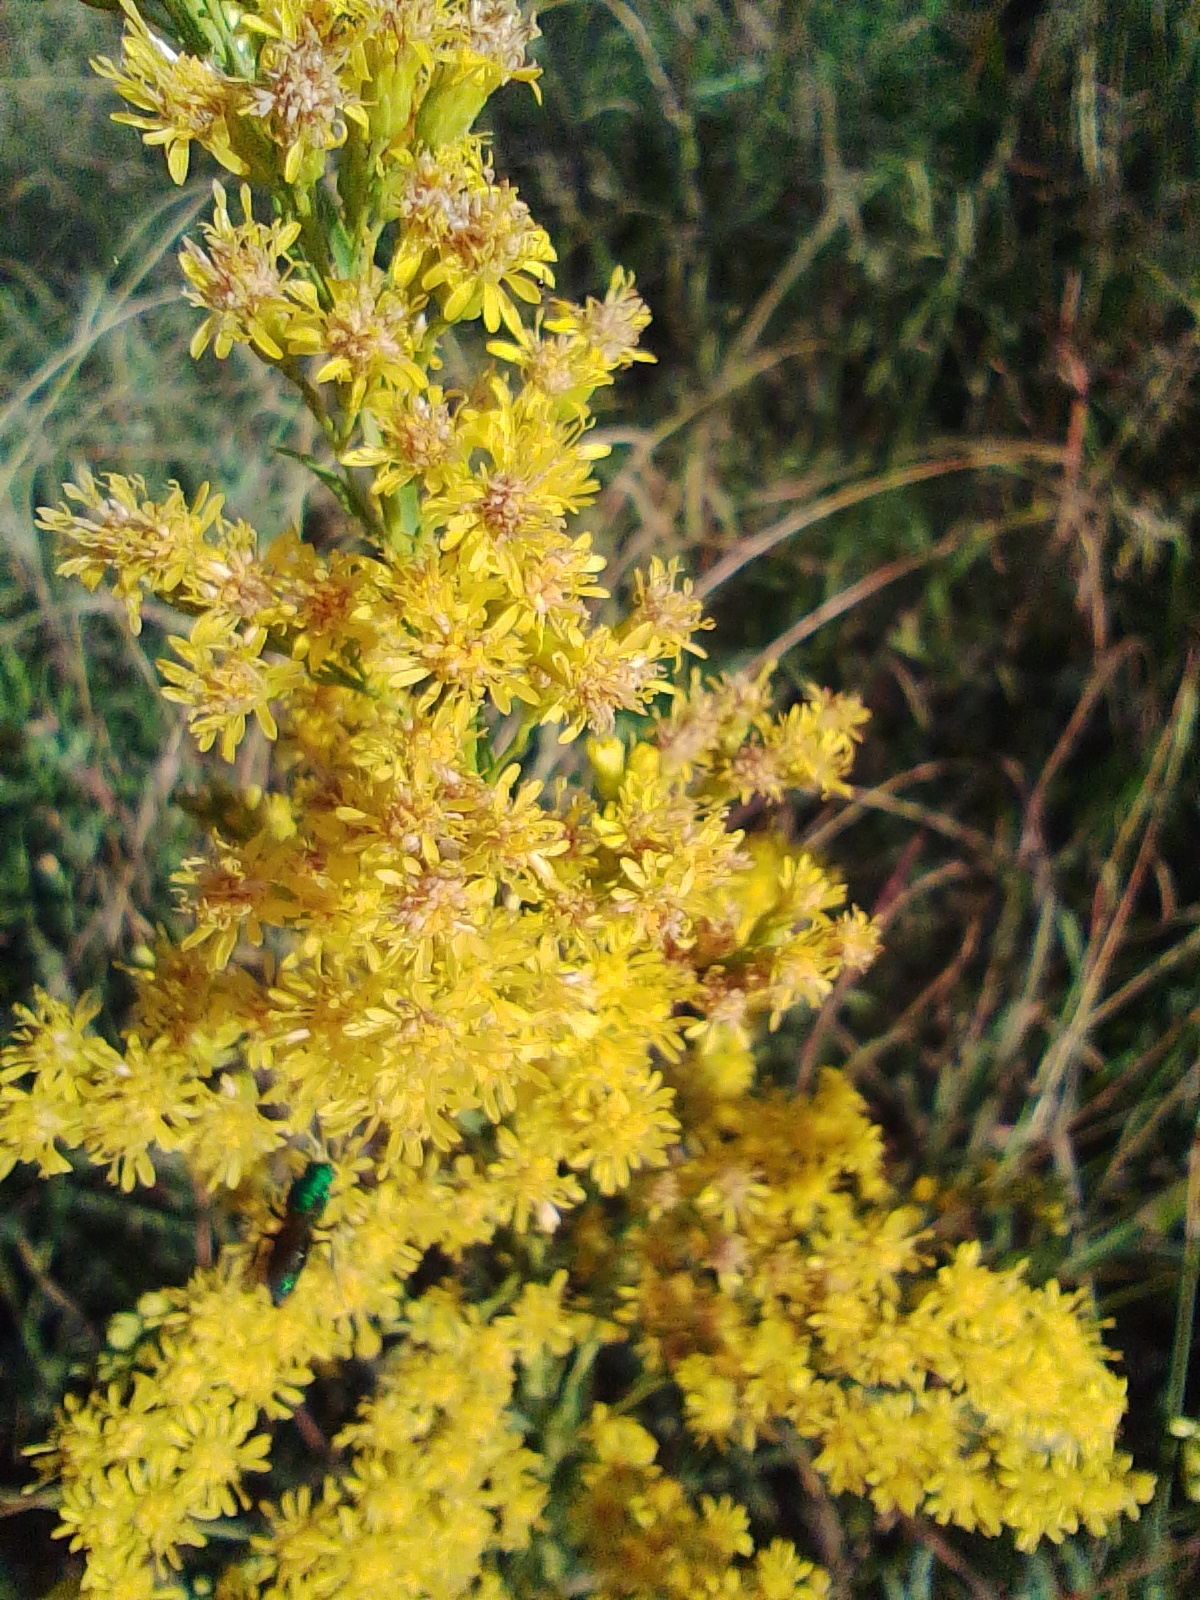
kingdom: Plantae
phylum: Tracheophyta
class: Magnoliopsida
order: Asterales
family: Asteraceae
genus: Solidago
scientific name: Solidago chilensis
